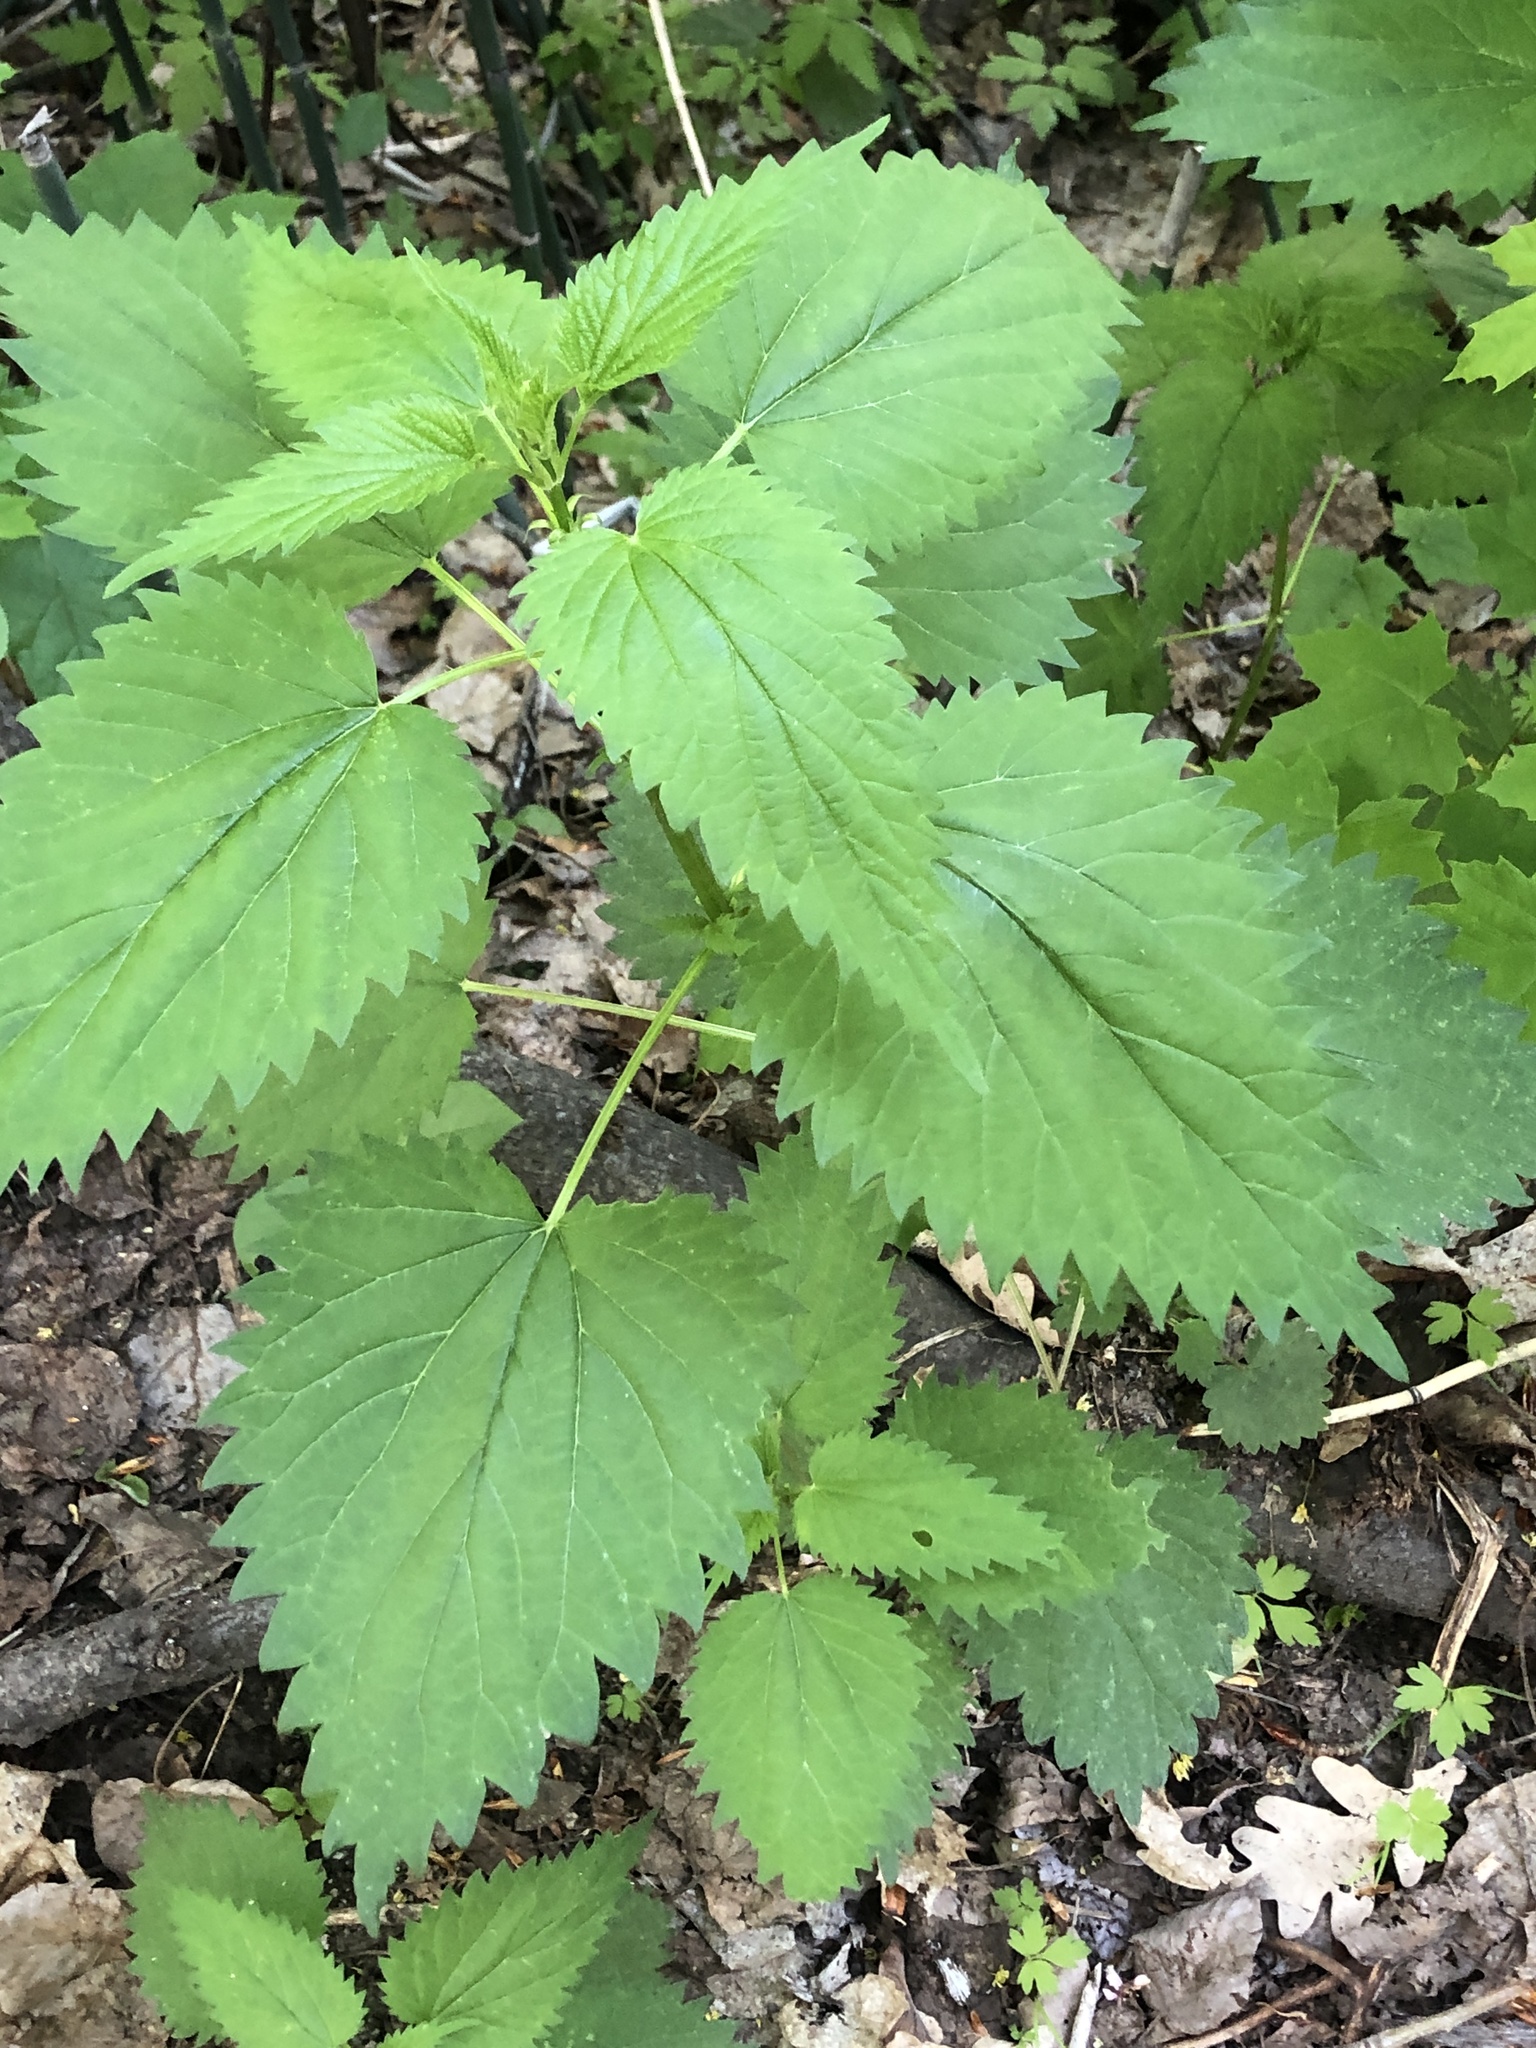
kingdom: Plantae
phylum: Tracheophyta
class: Magnoliopsida
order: Rosales
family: Urticaceae
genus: Urtica
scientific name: Urtica gracilis
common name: Slender stinging nettle
